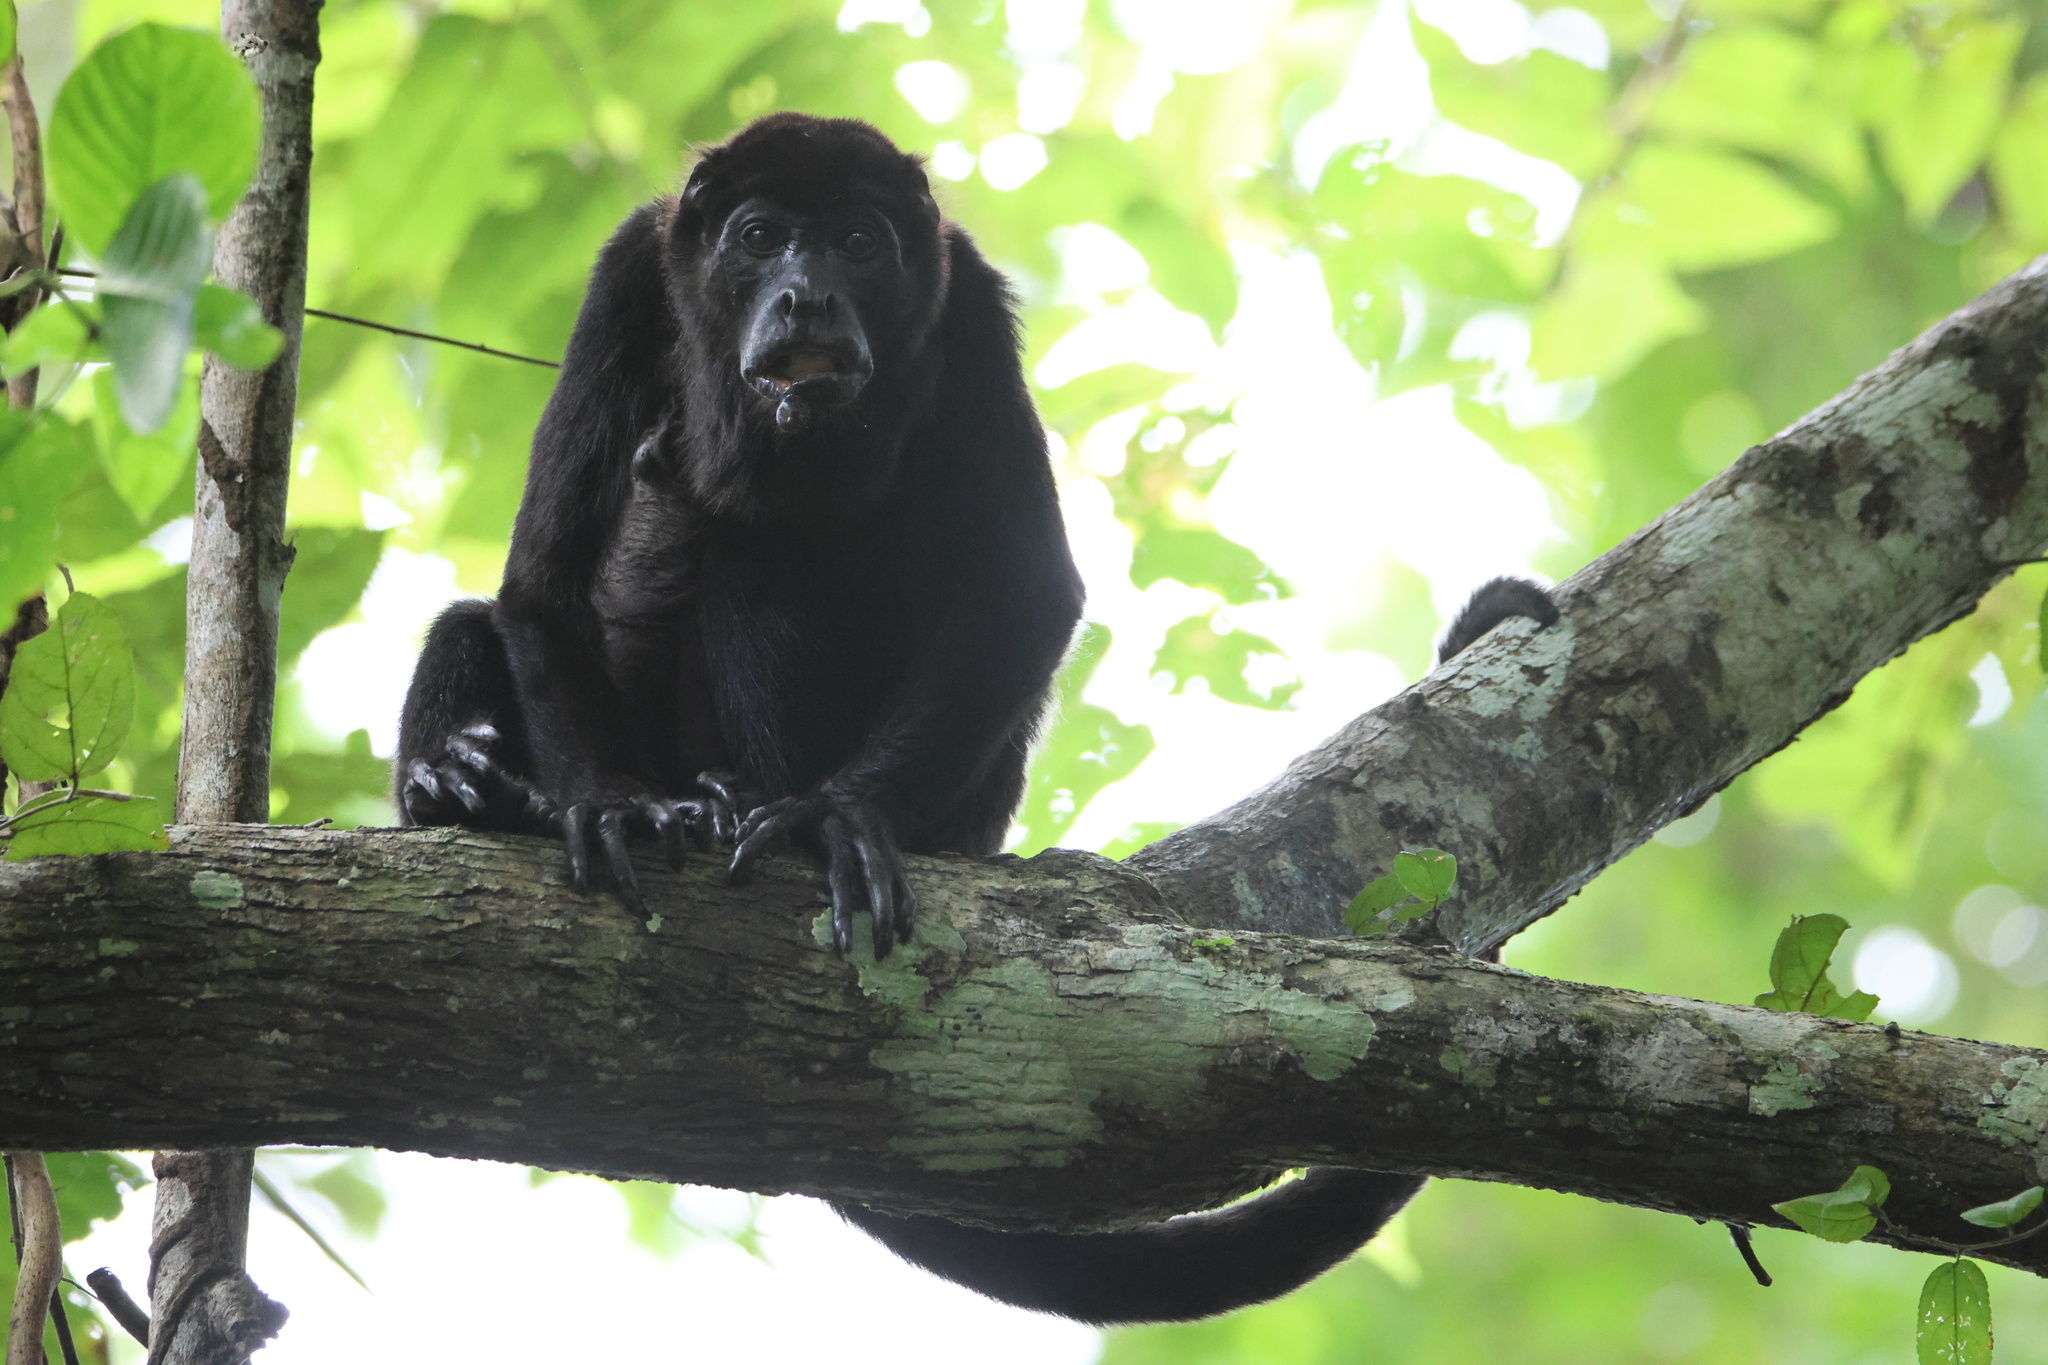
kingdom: Animalia
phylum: Chordata
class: Mammalia
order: Primates
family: Atelidae
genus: Alouatta
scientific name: Alouatta palliata
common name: Mantled howler
